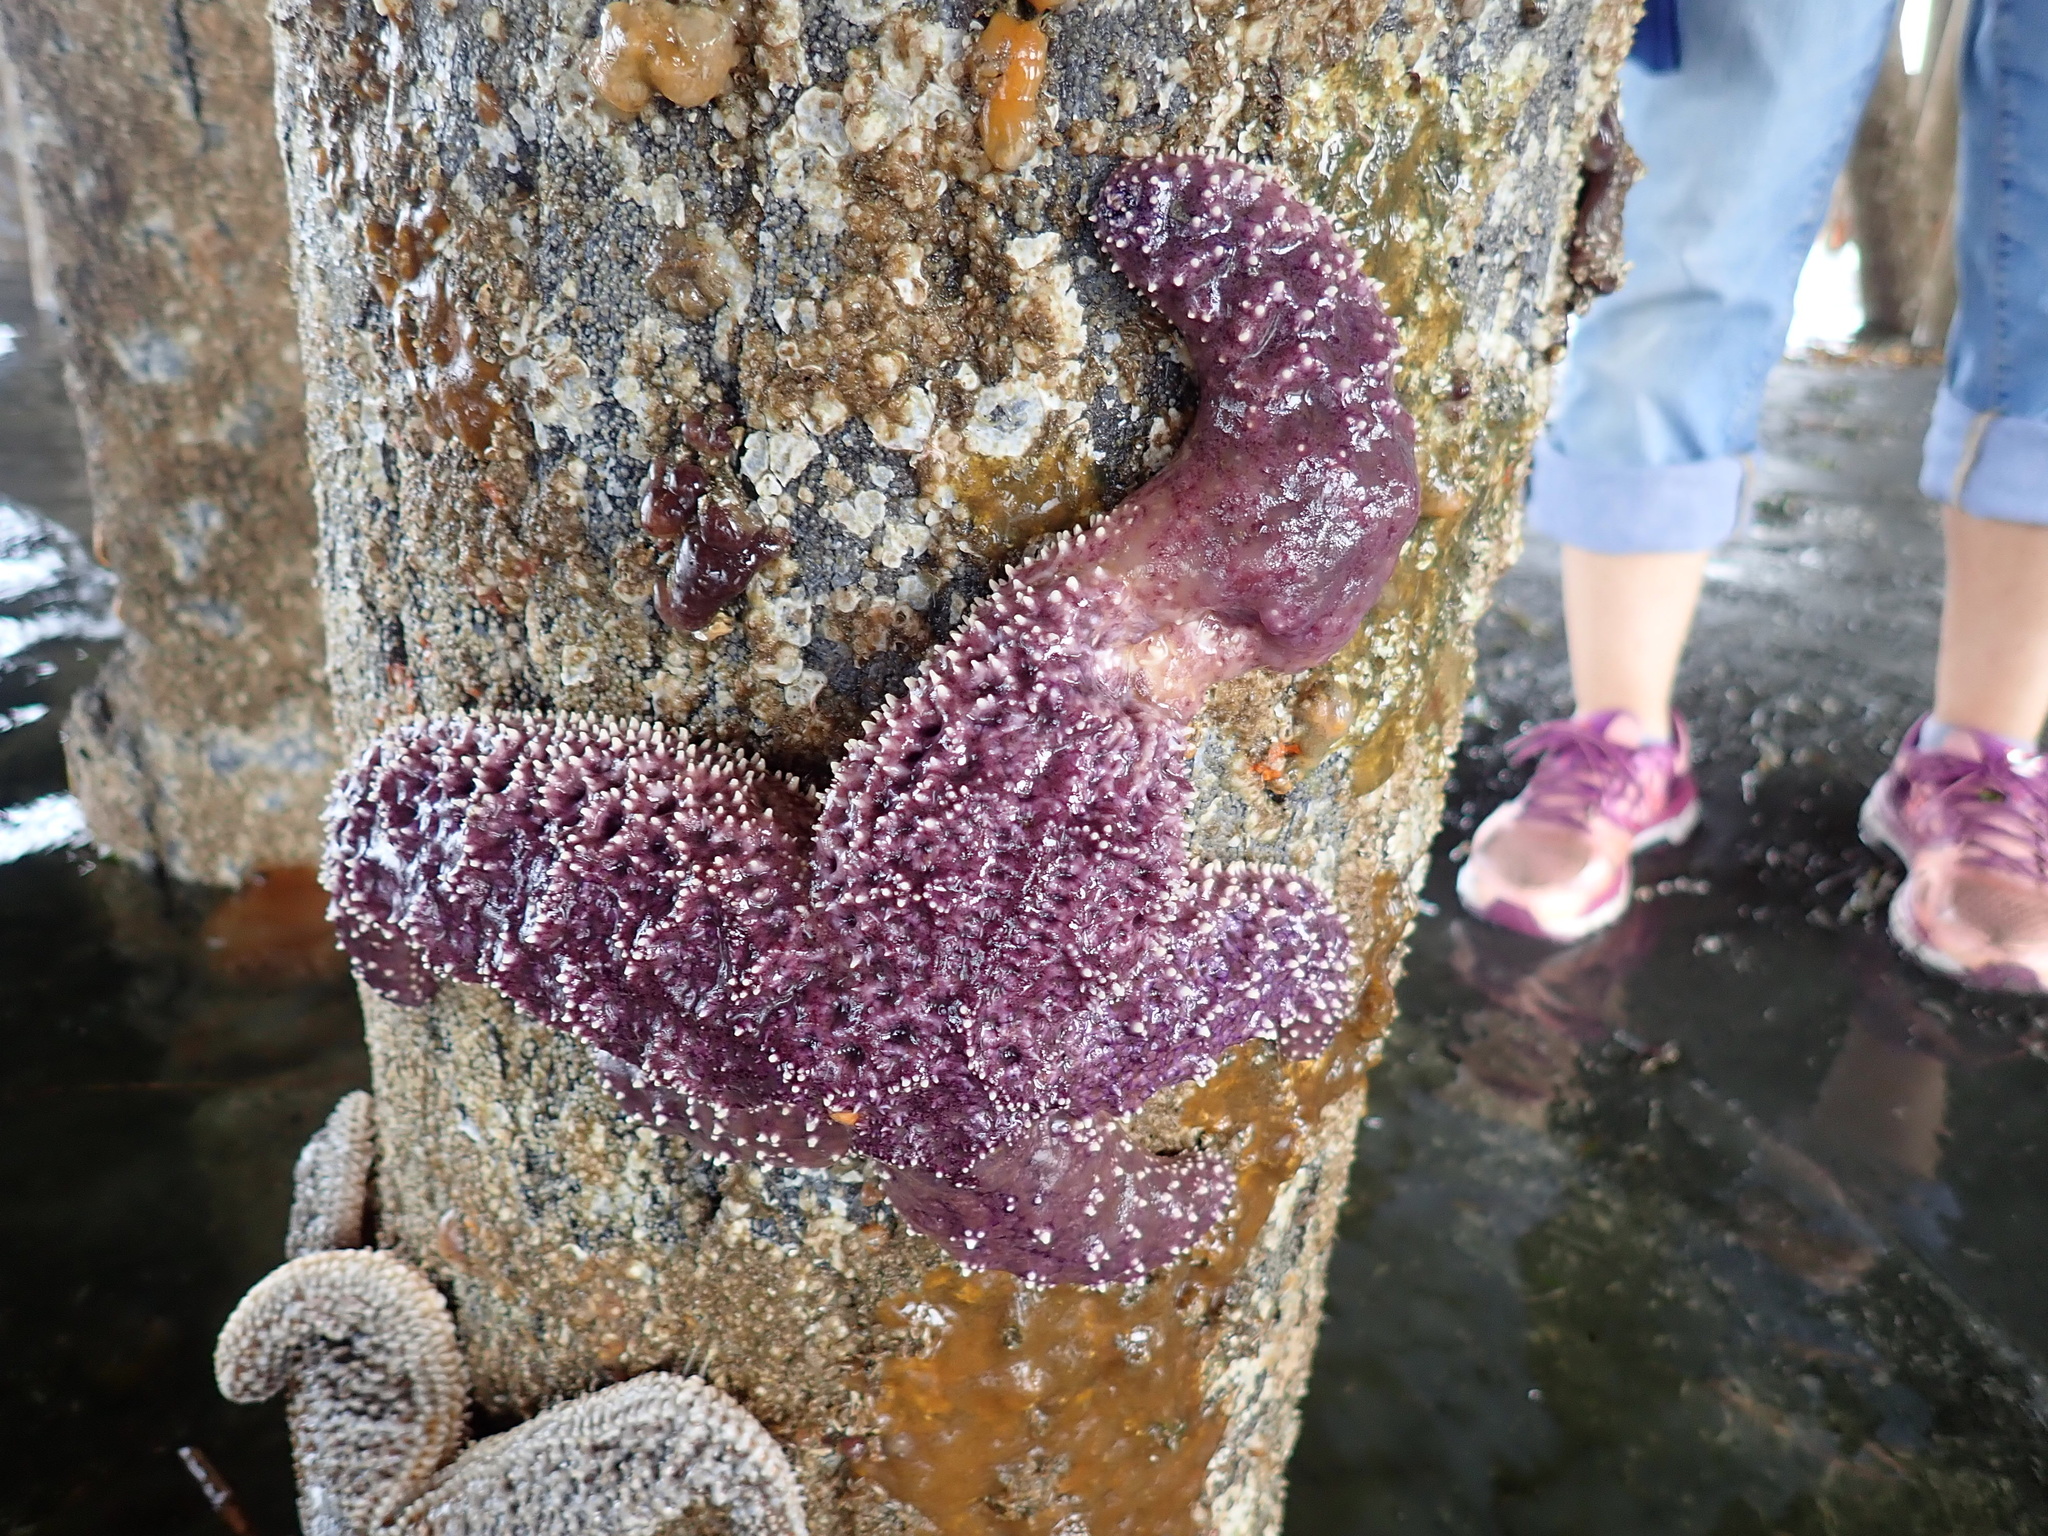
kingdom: Animalia
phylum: Echinodermata
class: Asteroidea
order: Forcipulatida
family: Asteriidae
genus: Pisaster
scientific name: Pisaster ochraceus
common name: Ochre stars
